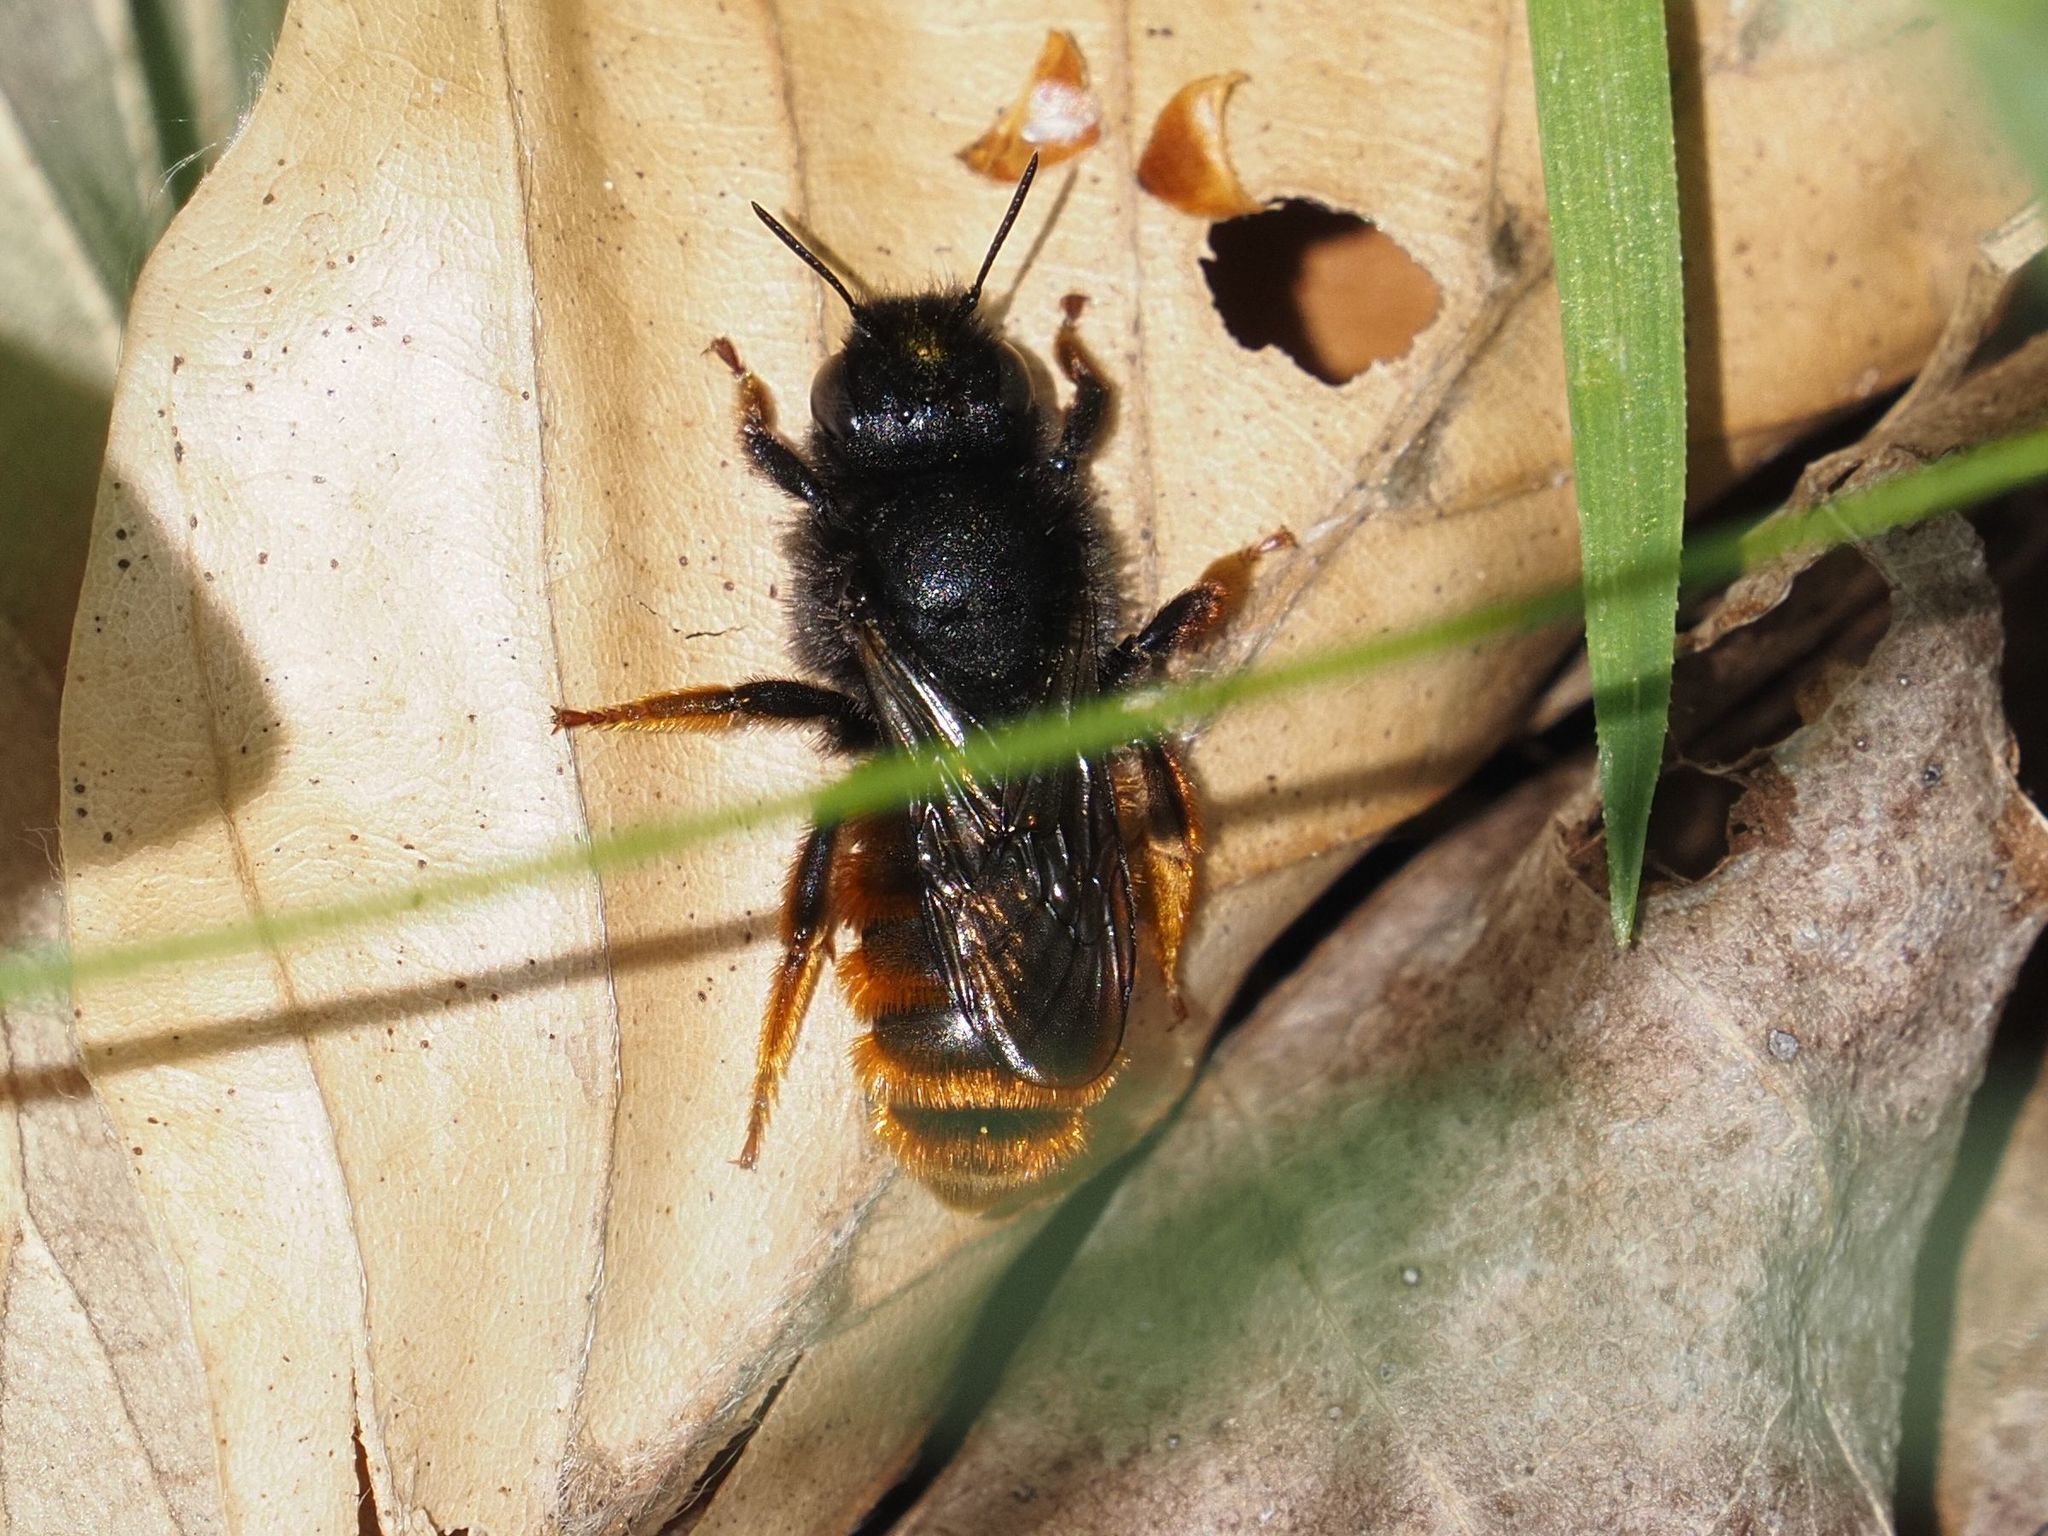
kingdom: Animalia
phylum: Arthropoda
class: Insecta
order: Hymenoptera
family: Megachilidae
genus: Osmia
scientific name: Osmia bicolor
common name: Red-tailed mason bee
